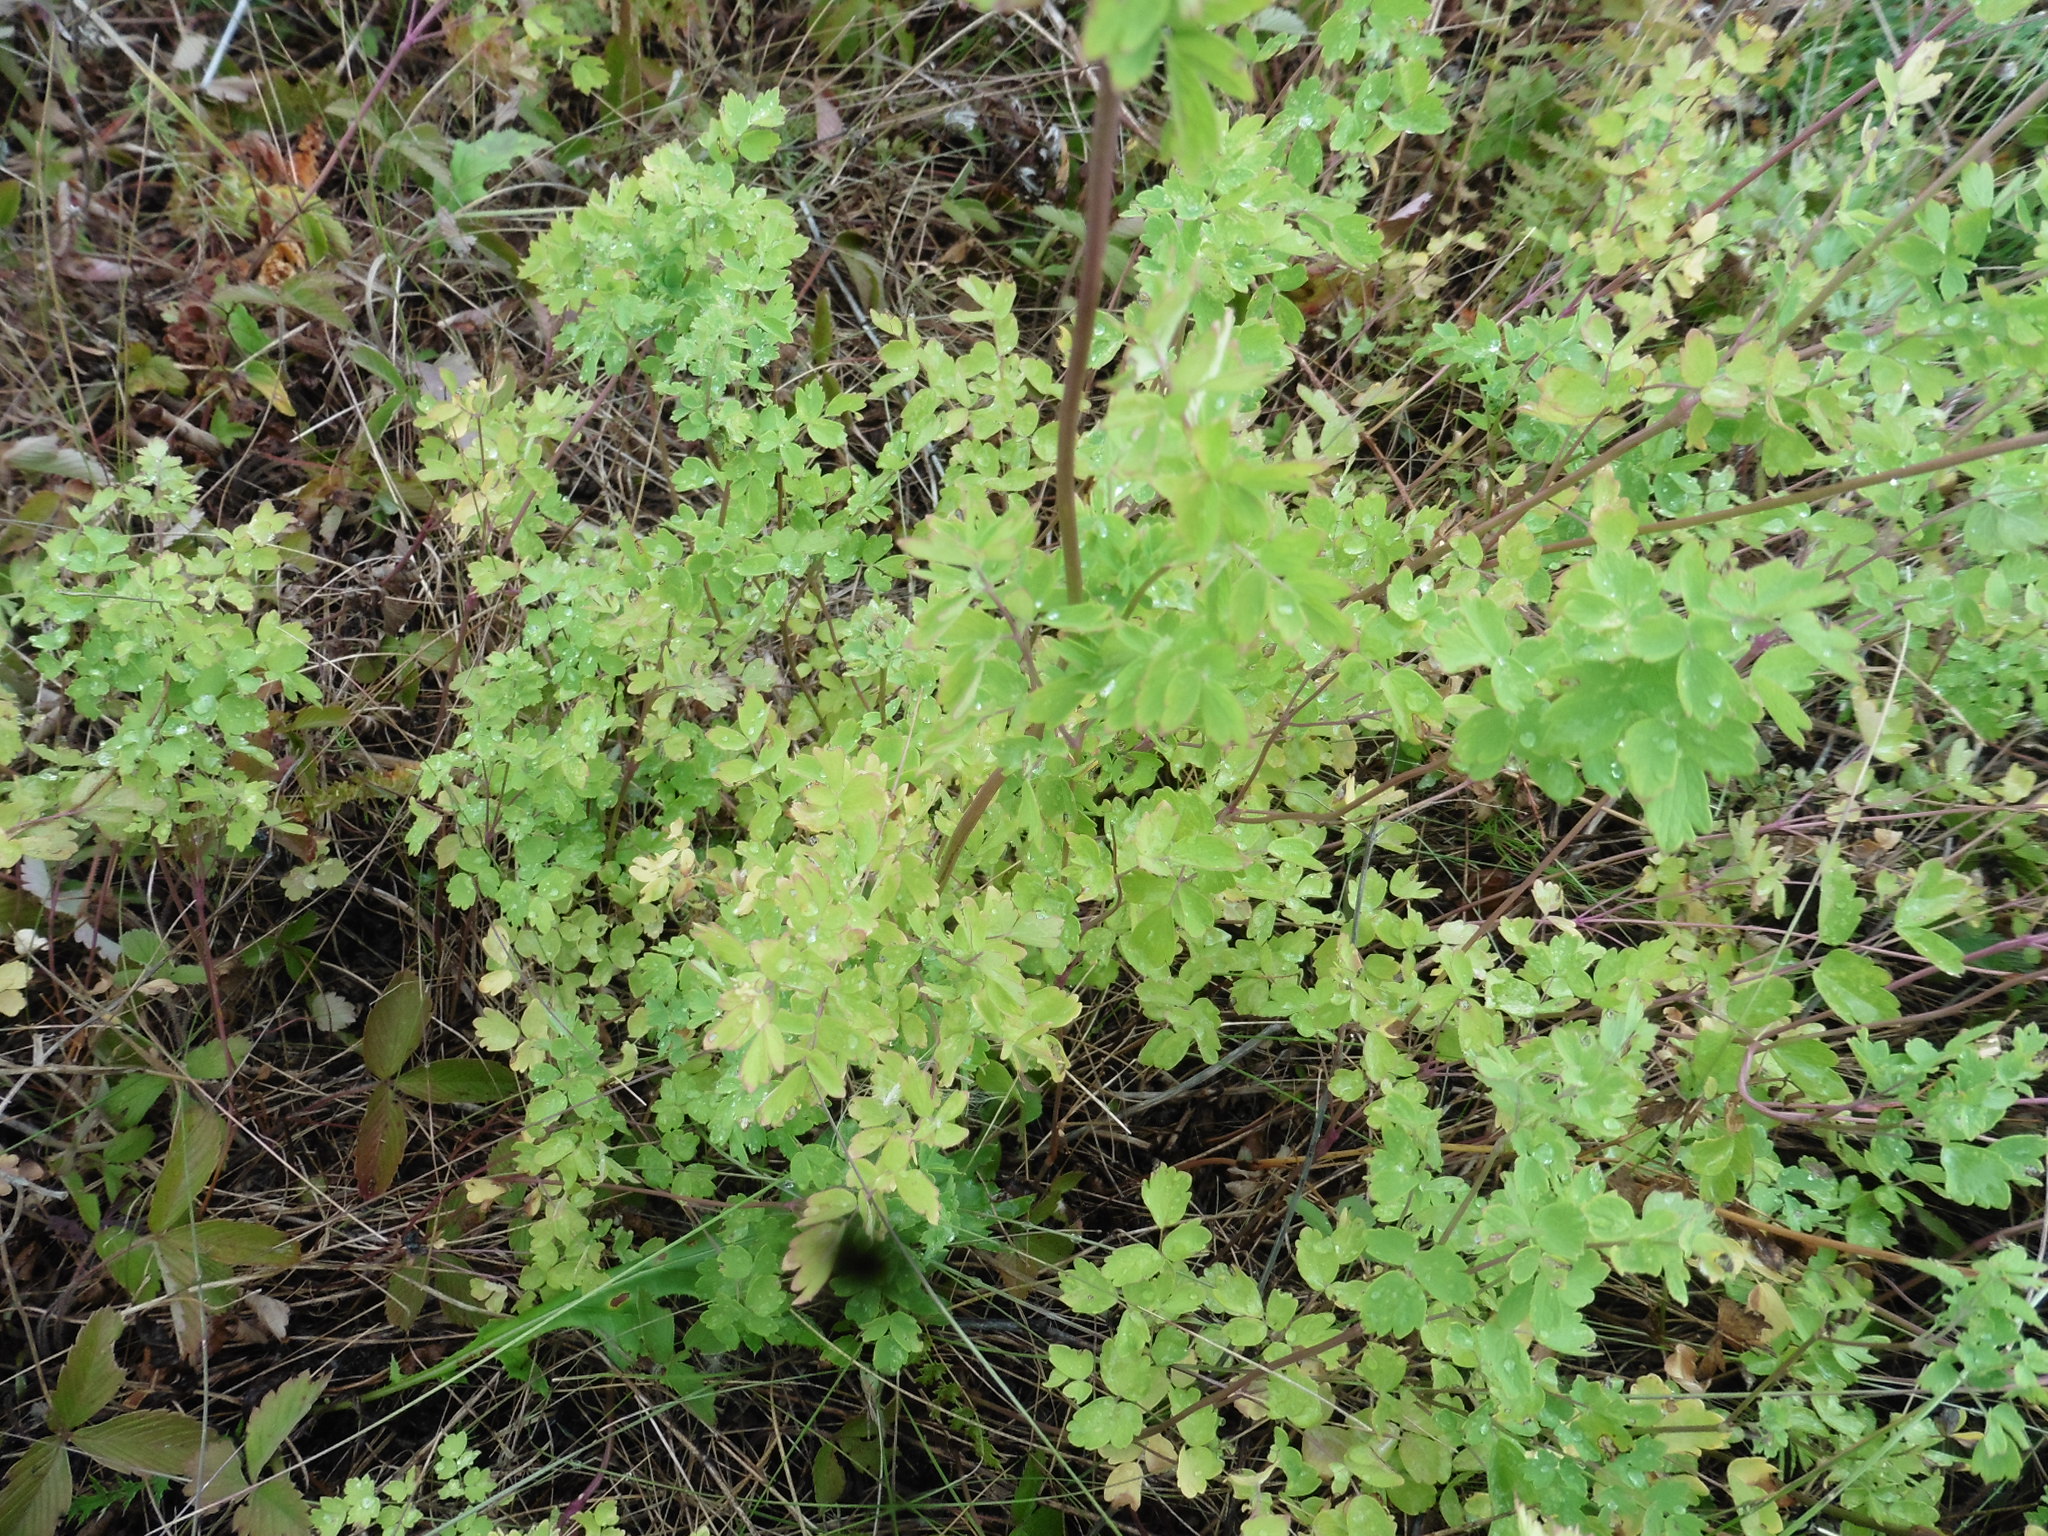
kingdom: Plantae
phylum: Tracheophyta
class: Magnoliopsida
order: Ranunculales
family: Ranunculaceae
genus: Thalictrum
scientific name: Thalictrum minus
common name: Lesser meadow-rue
